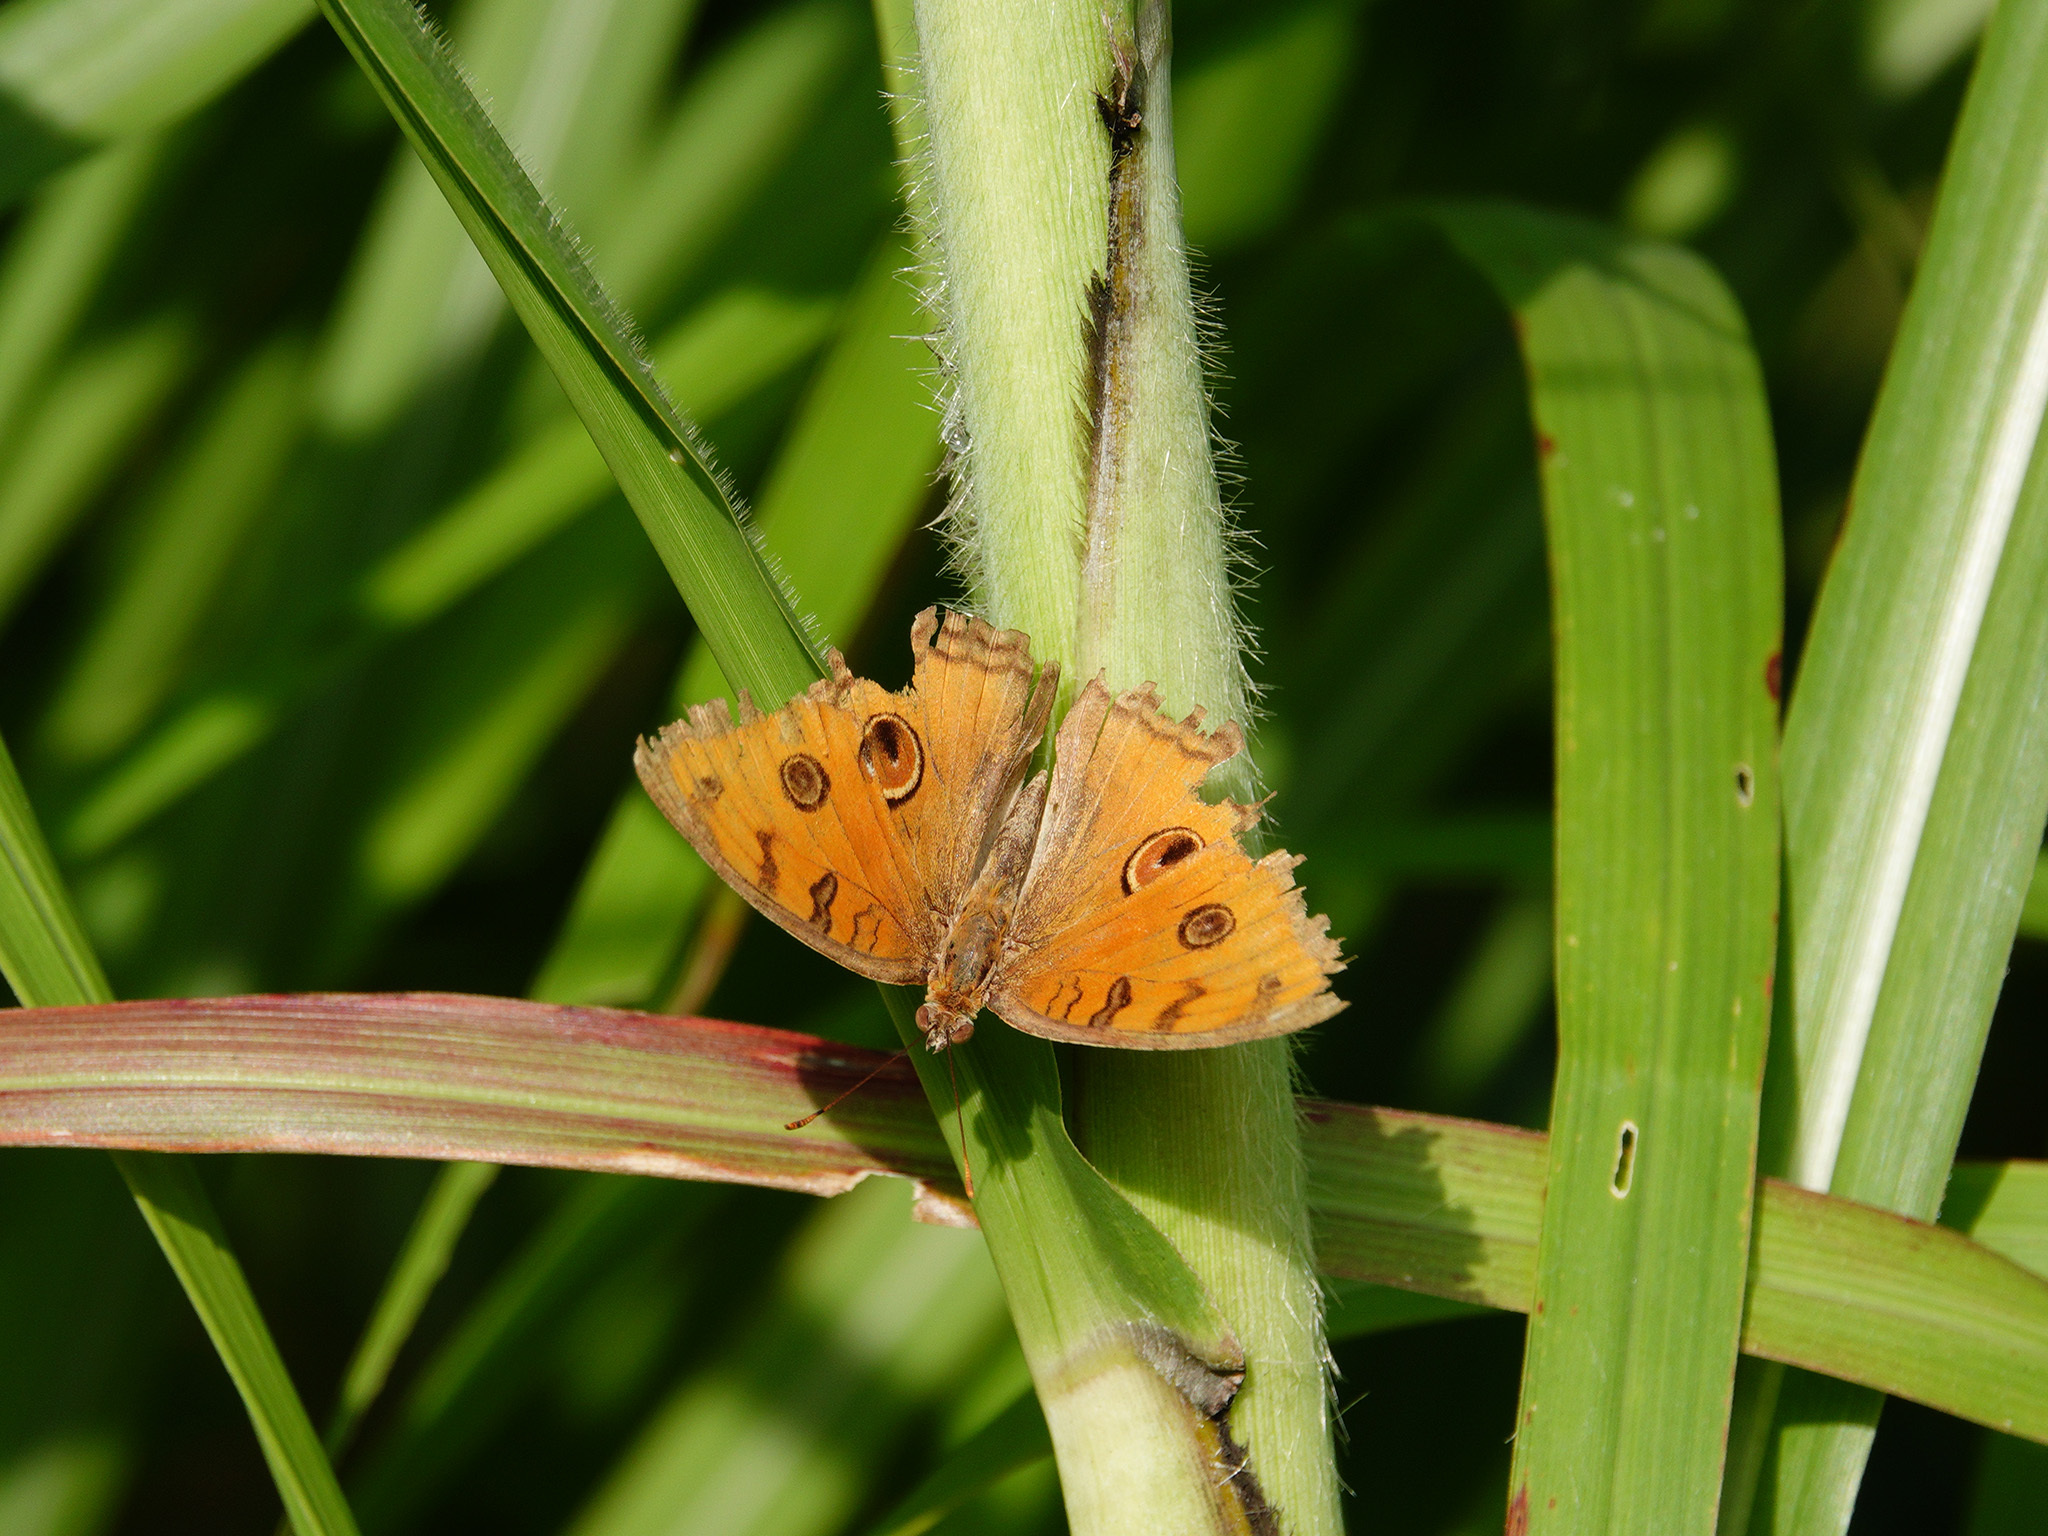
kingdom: Animalia
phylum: Arthropoda
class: Insecta
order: Lepidoptera
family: Nymphalidae
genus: Junonia
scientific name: Junonia almana
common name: Peacock pansy
